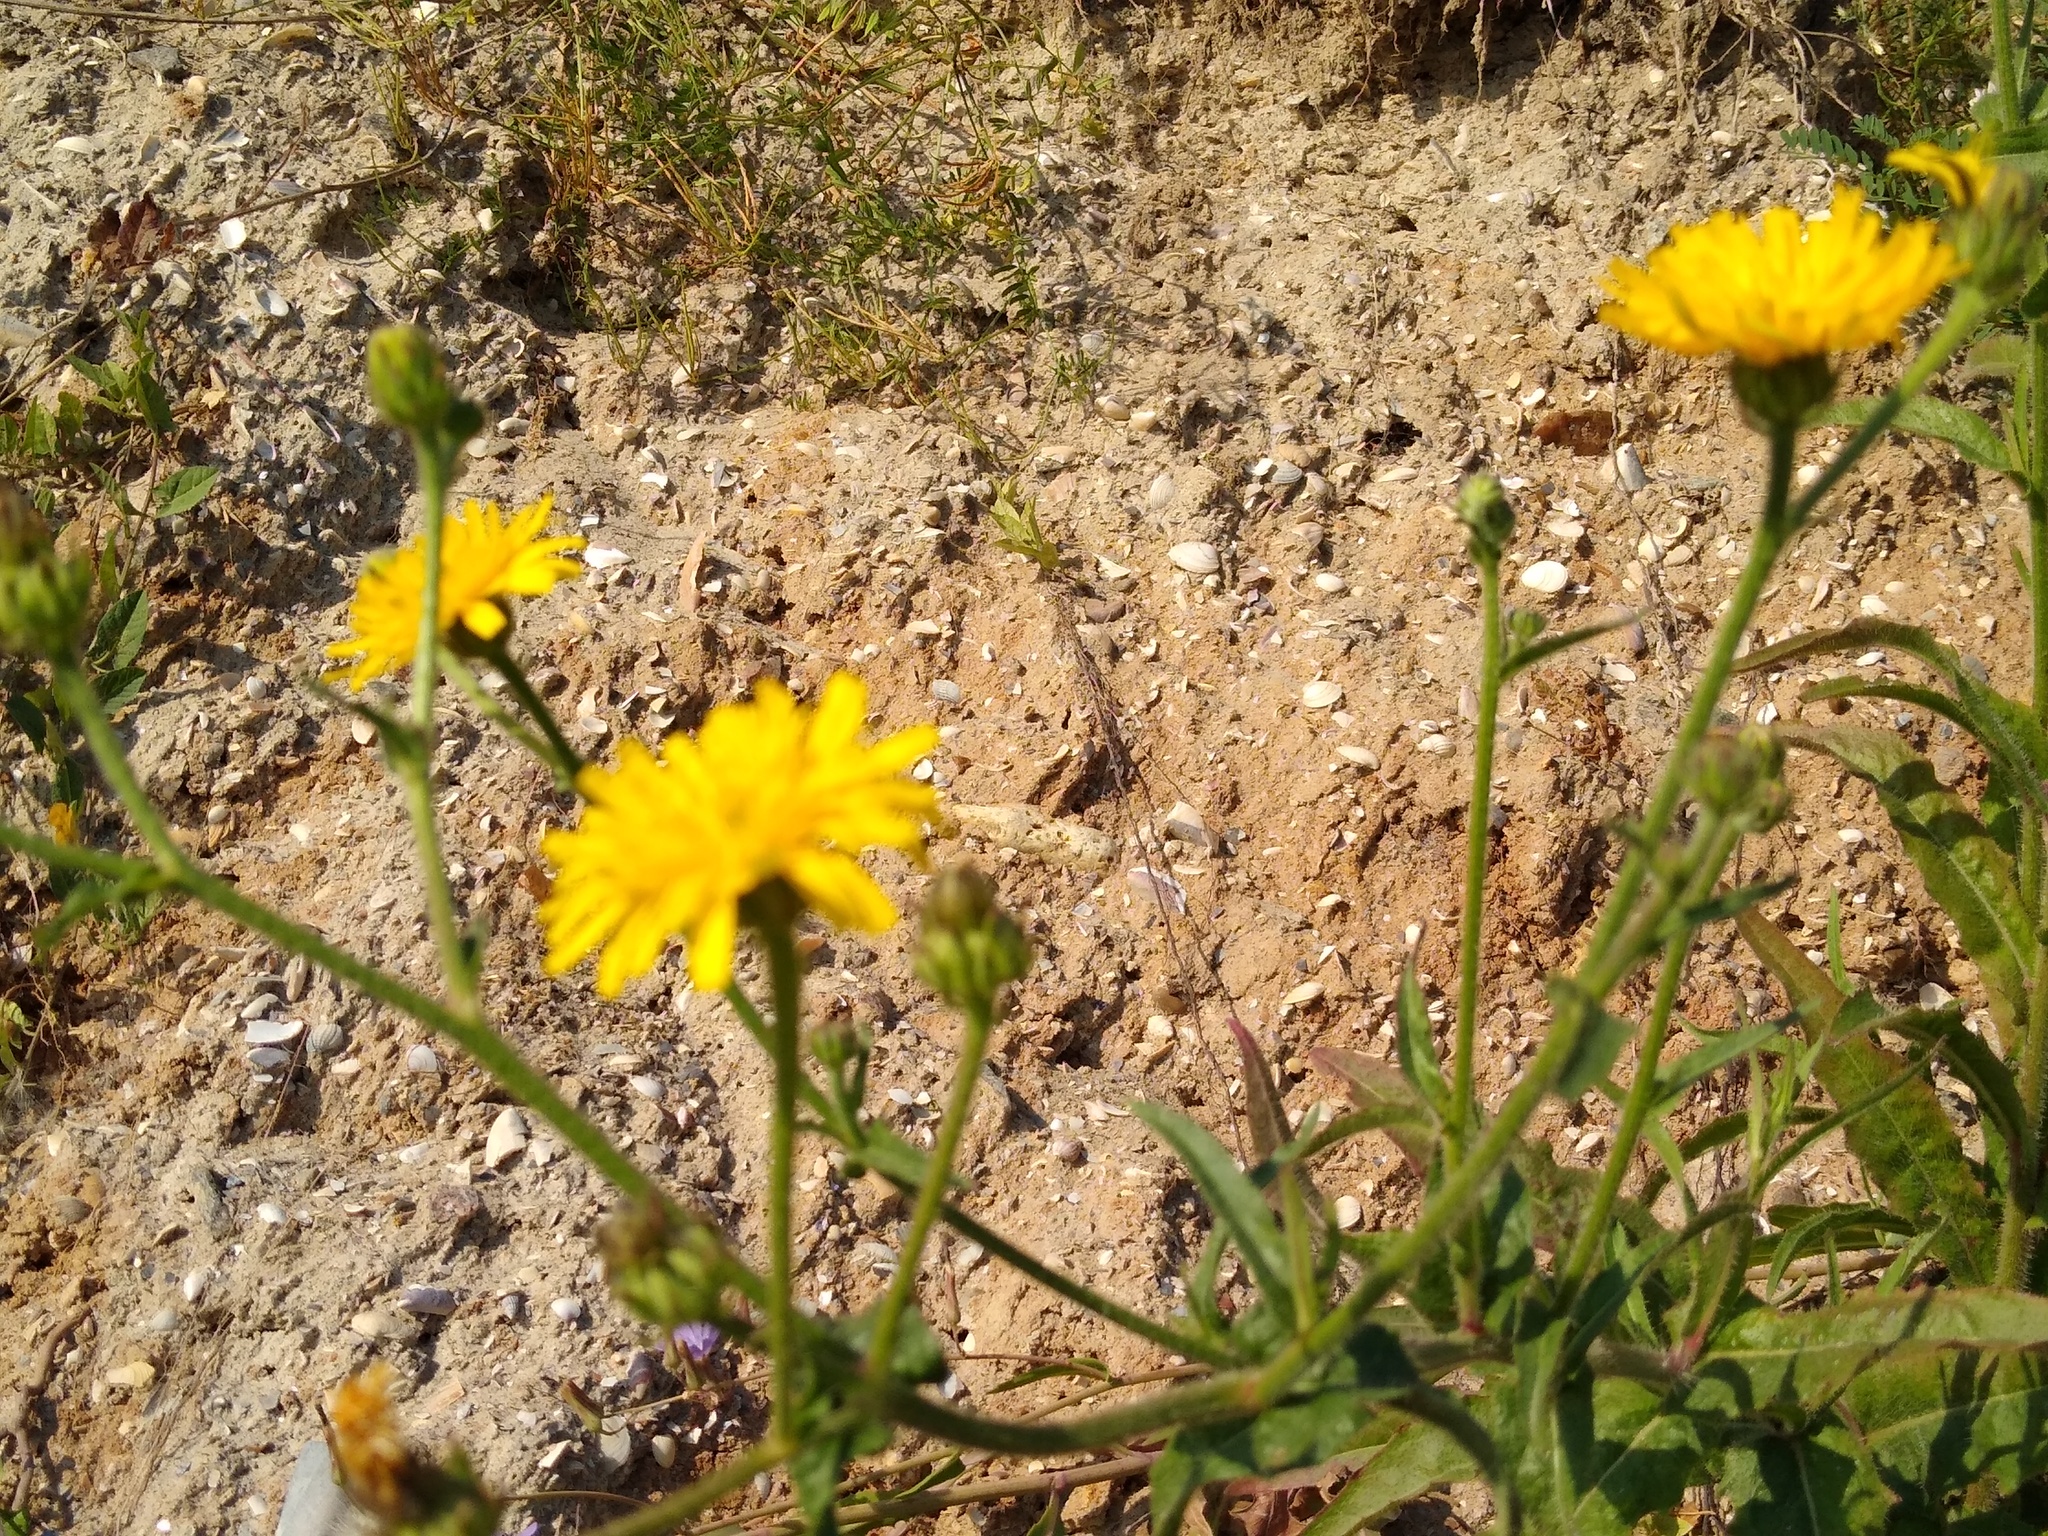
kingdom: Plantae
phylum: Tracheophyta
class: Magnoliopsida
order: Asterales
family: Asteraceae
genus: Picris
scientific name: Picris hieracioides
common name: Hawkweed oxtongue
